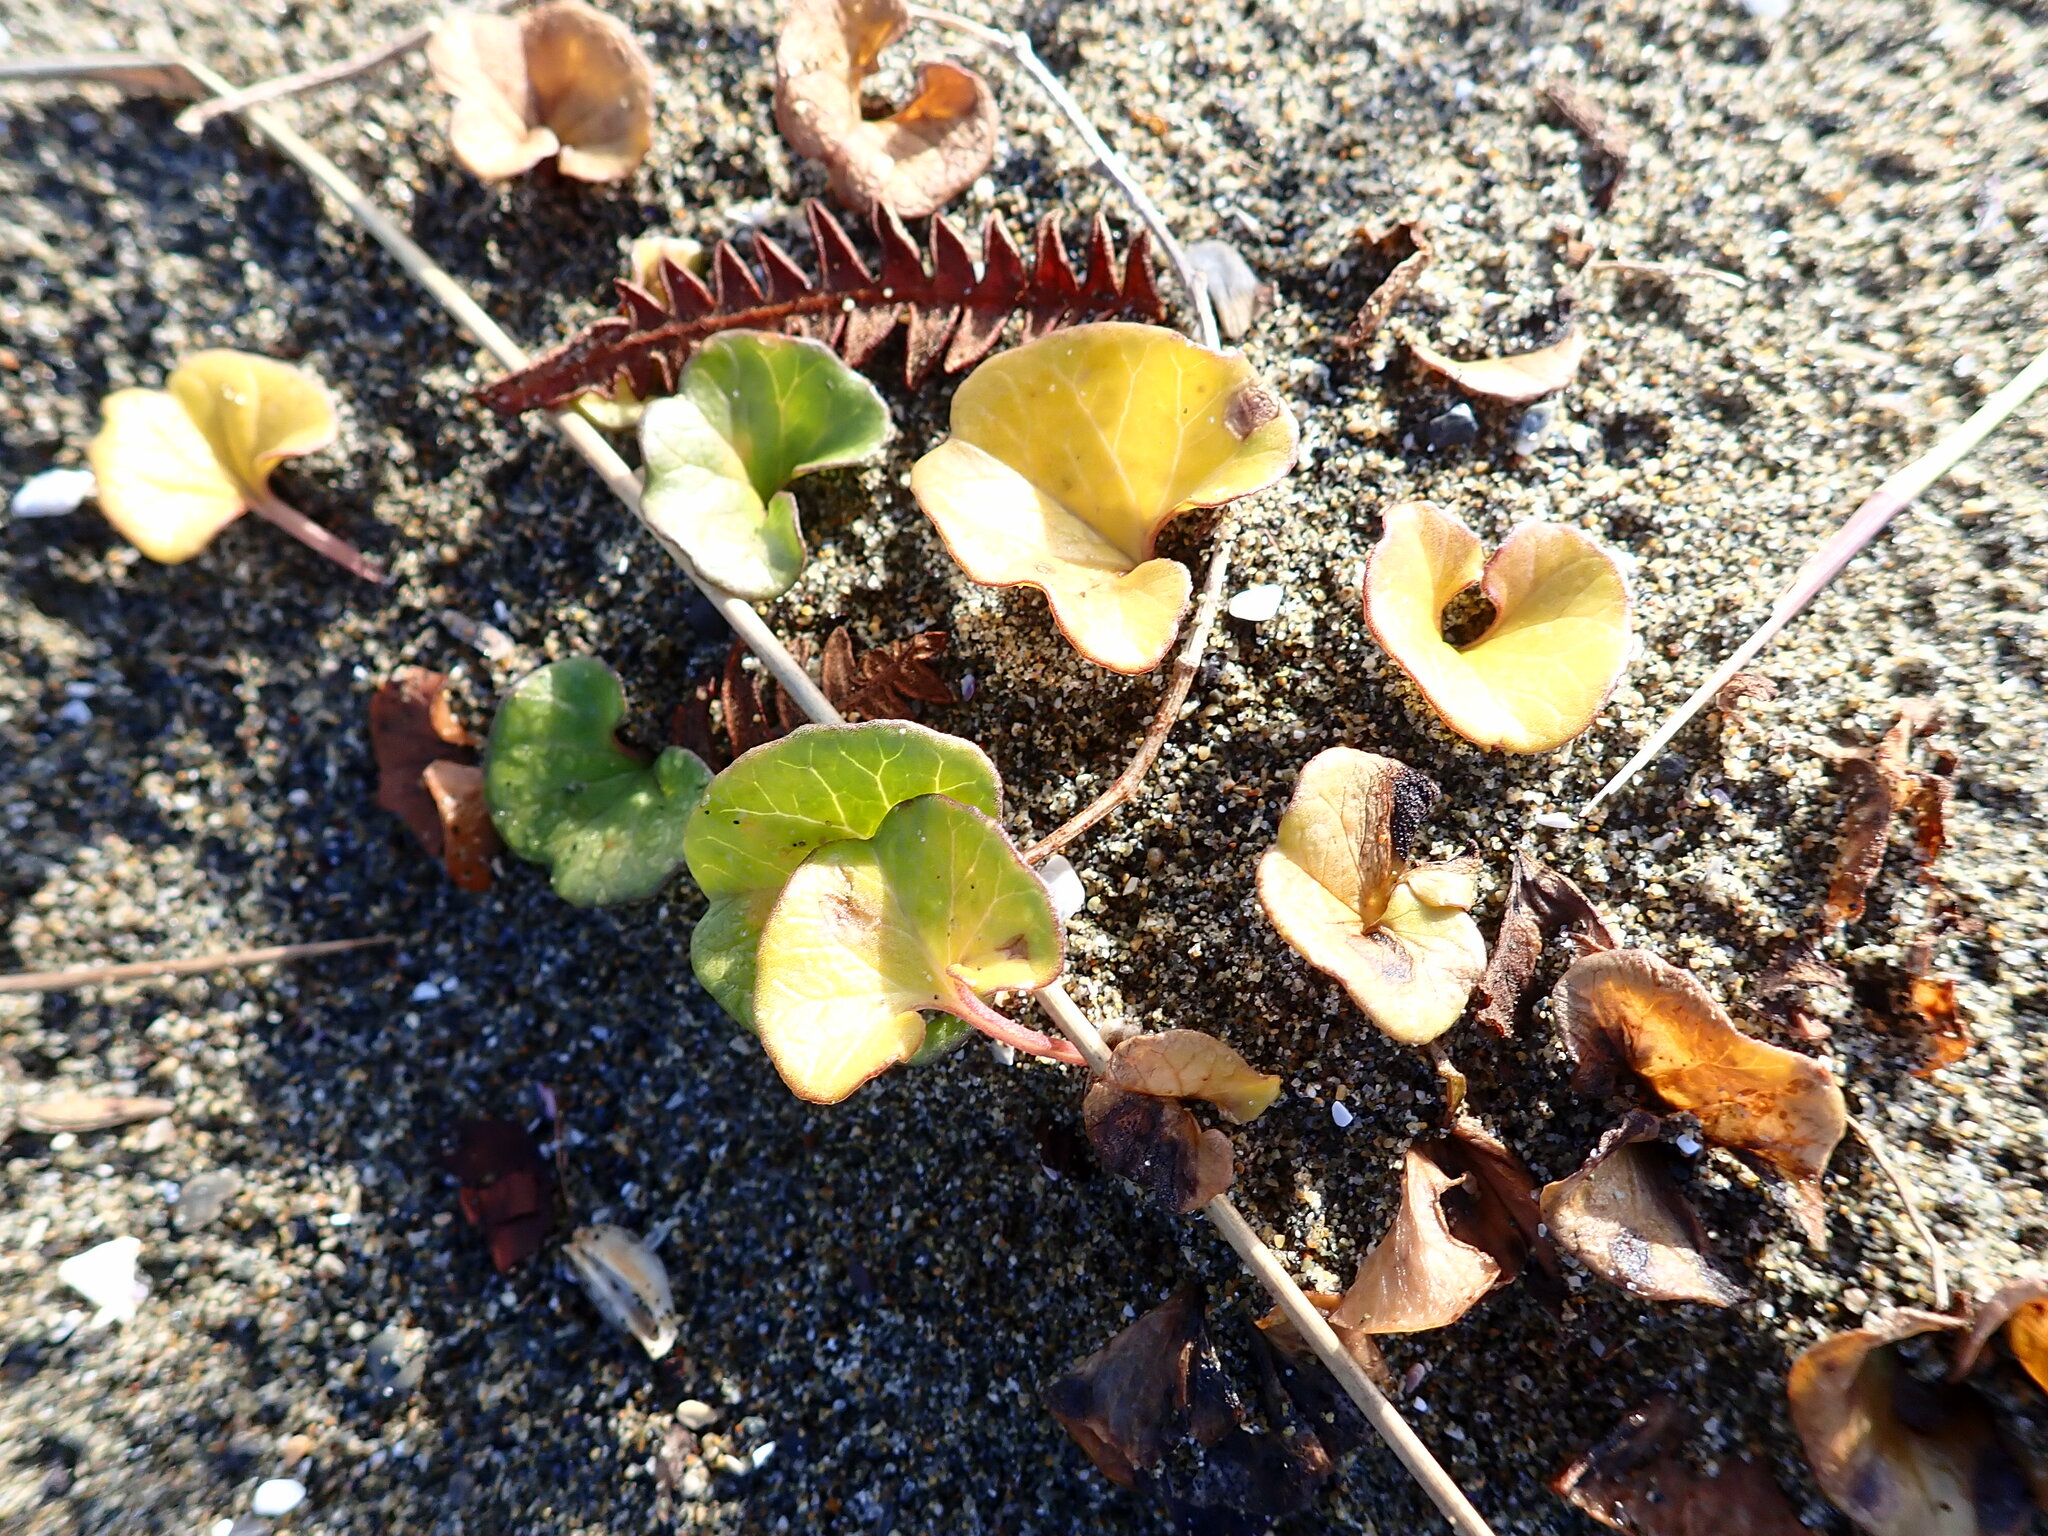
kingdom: Plantae
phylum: Tracheophyta
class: Magnoliopsida
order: Solanales
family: Convolvulaceae
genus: Calystegia
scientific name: Calystegia soldanella
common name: Sea bindweed
